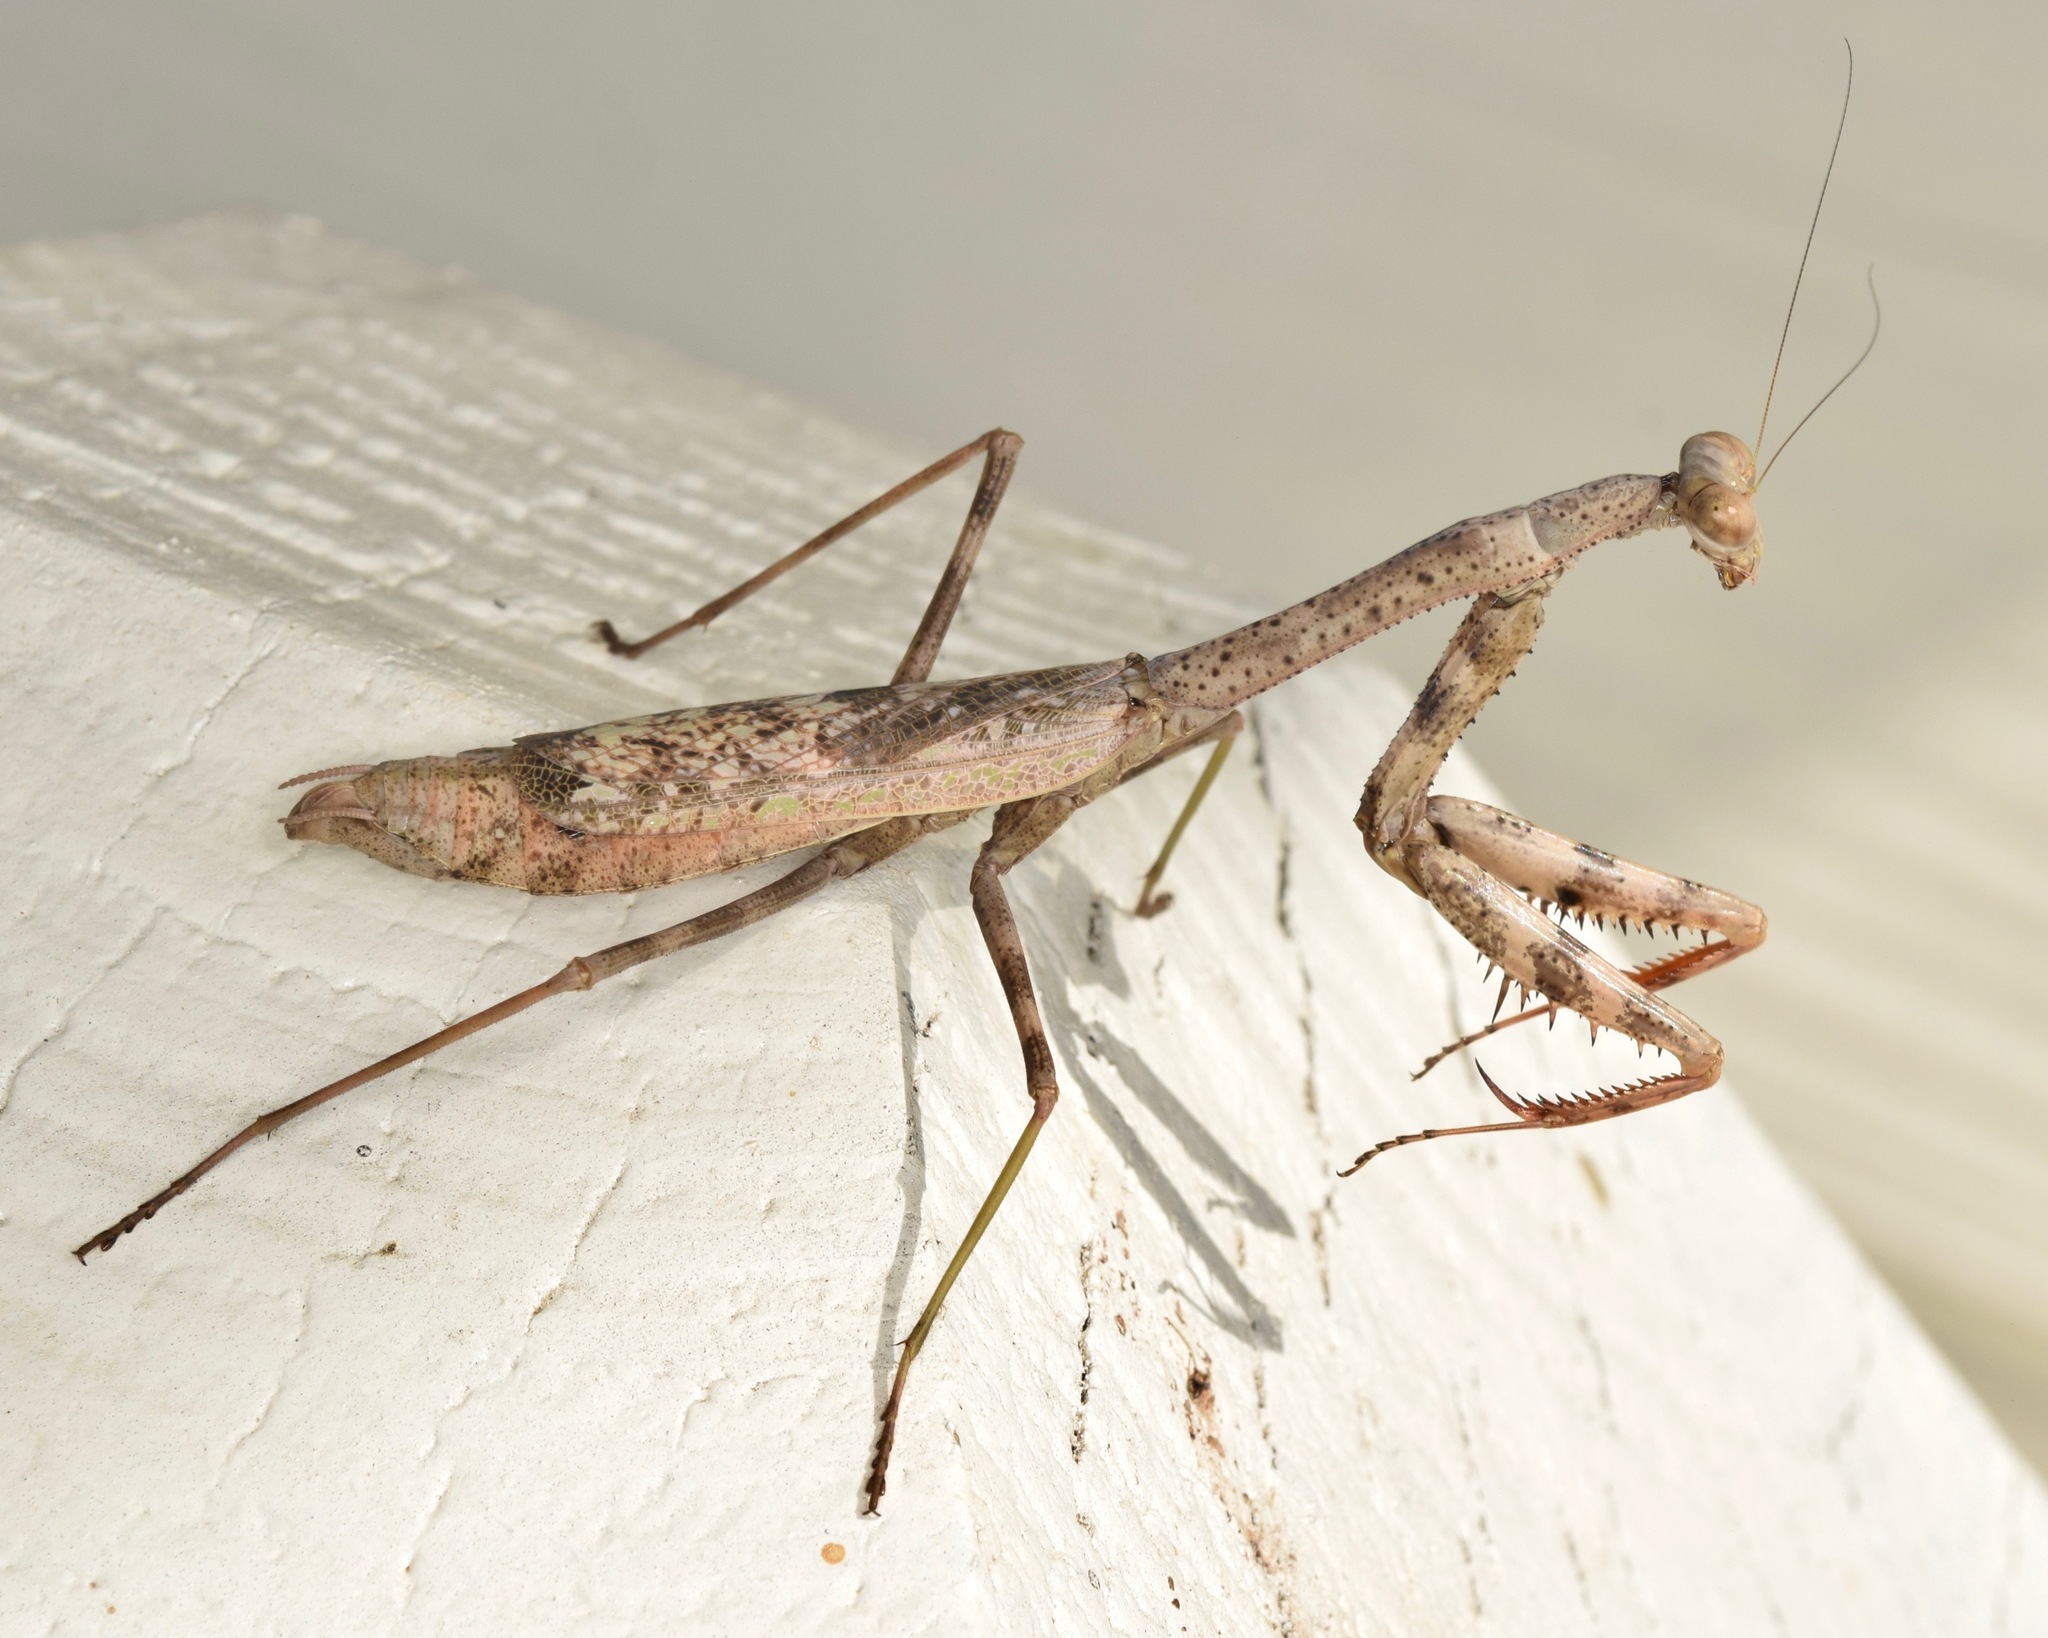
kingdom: Animalia
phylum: Arthropoda
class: Insecta
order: Mantodea
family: Mantidae
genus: Stagmomantis
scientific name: Stagmomantis carolina
